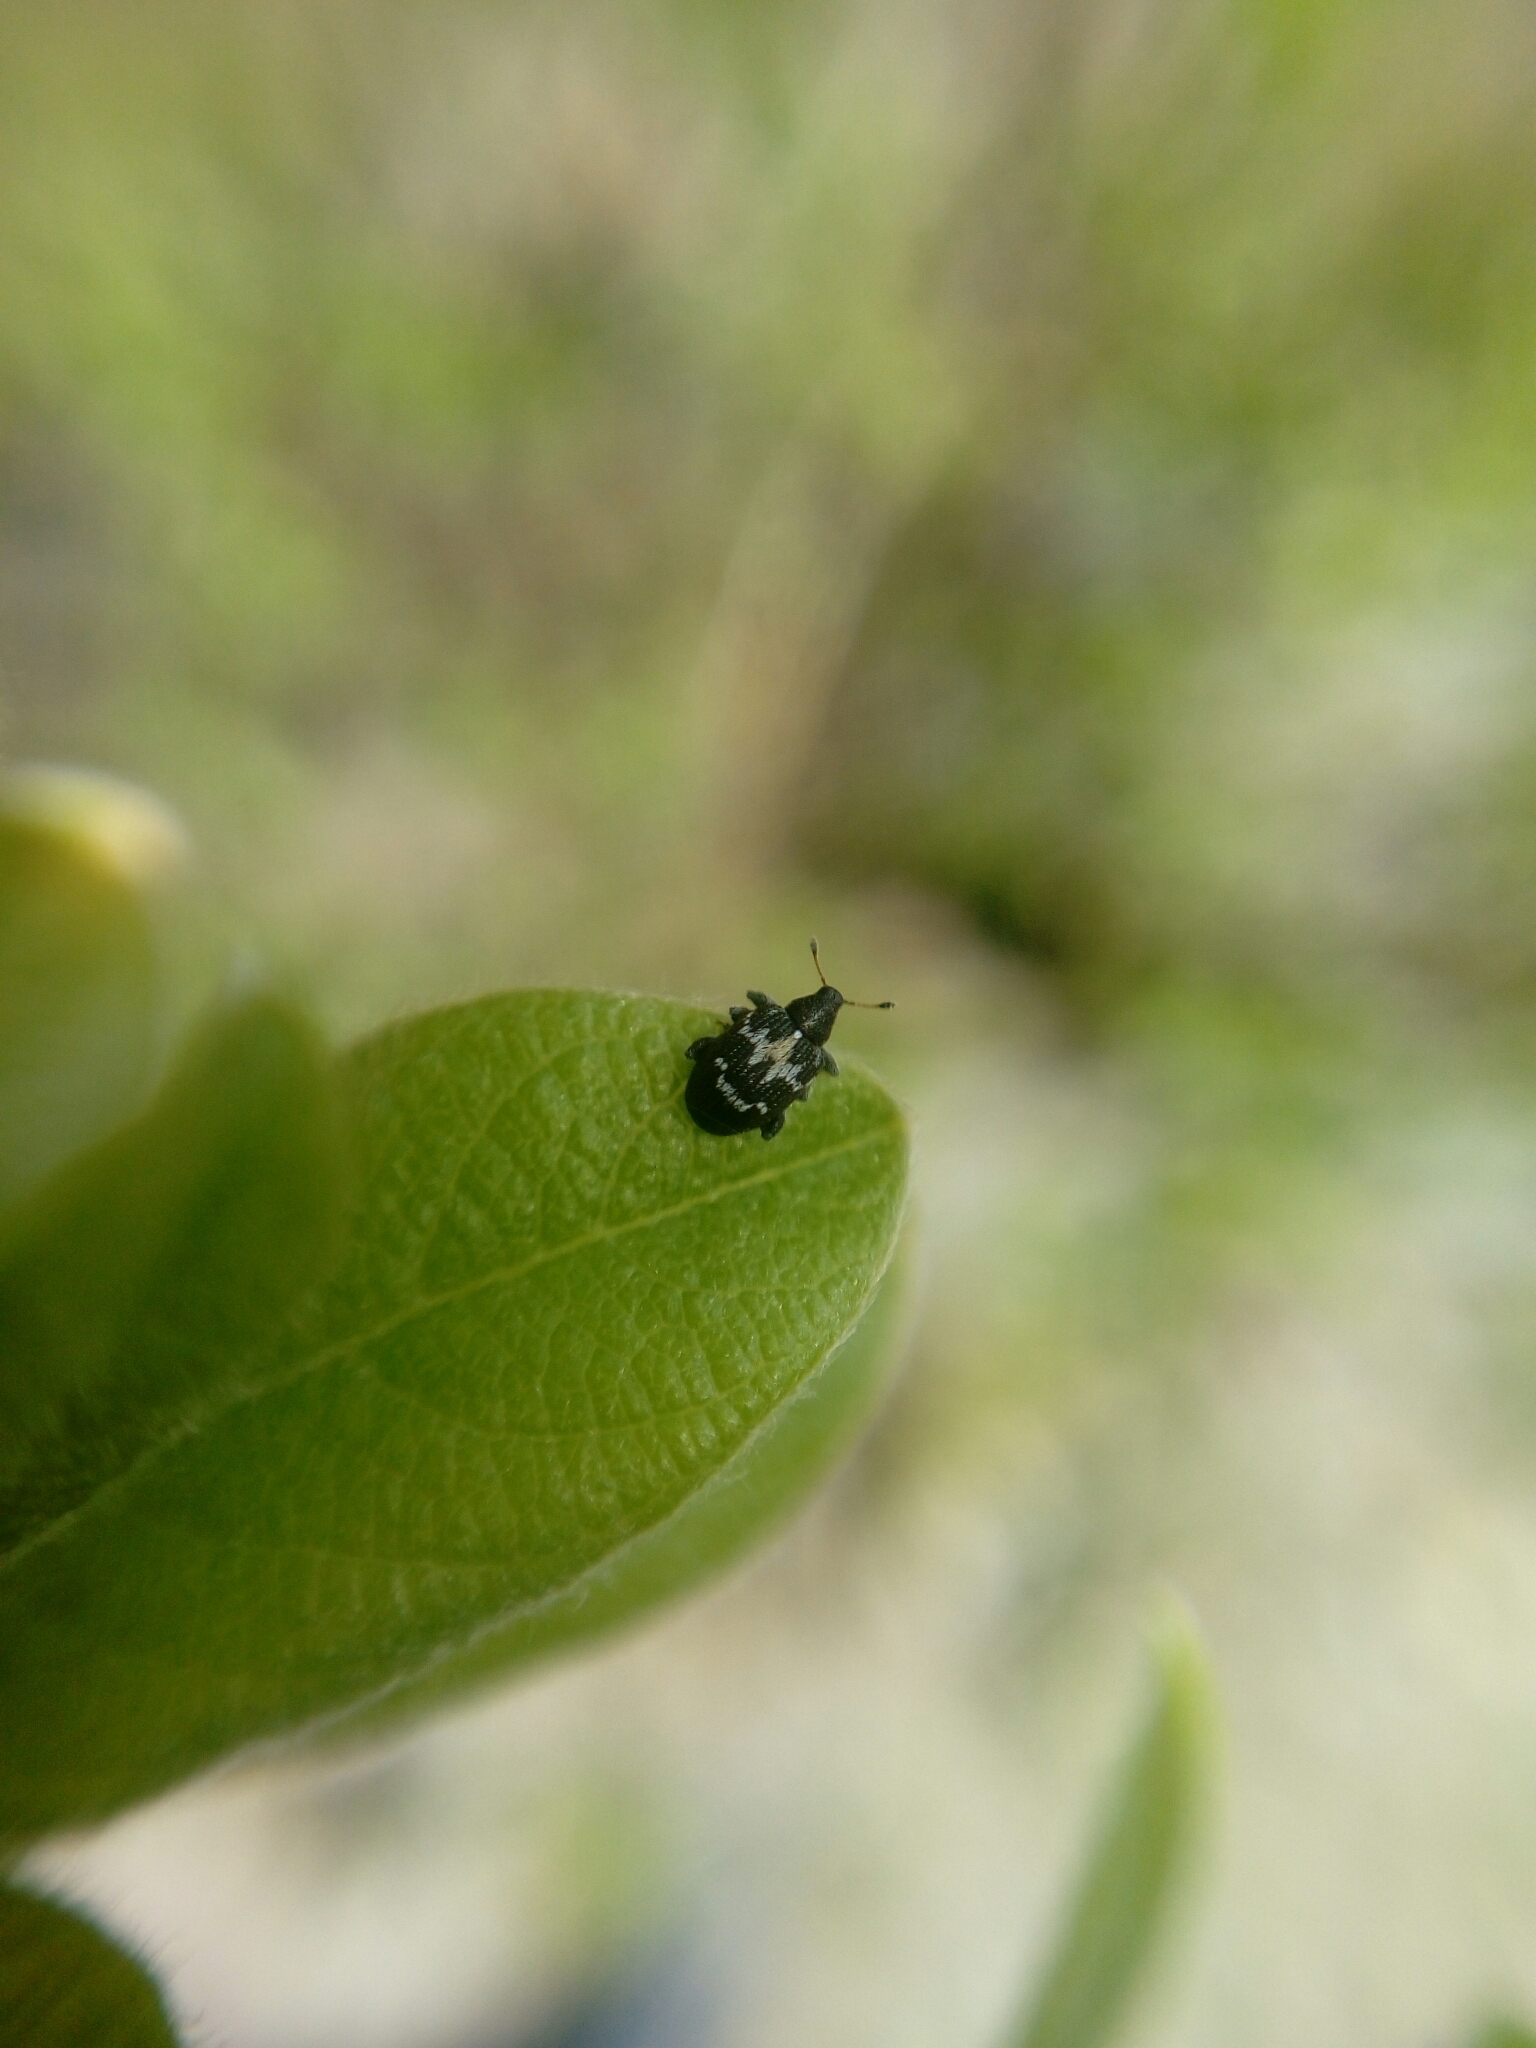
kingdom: Animalia
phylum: Arthropoda
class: Insecta
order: Coleoptera
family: Curculionidae
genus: Tachyerges
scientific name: Tachyerges salicis
